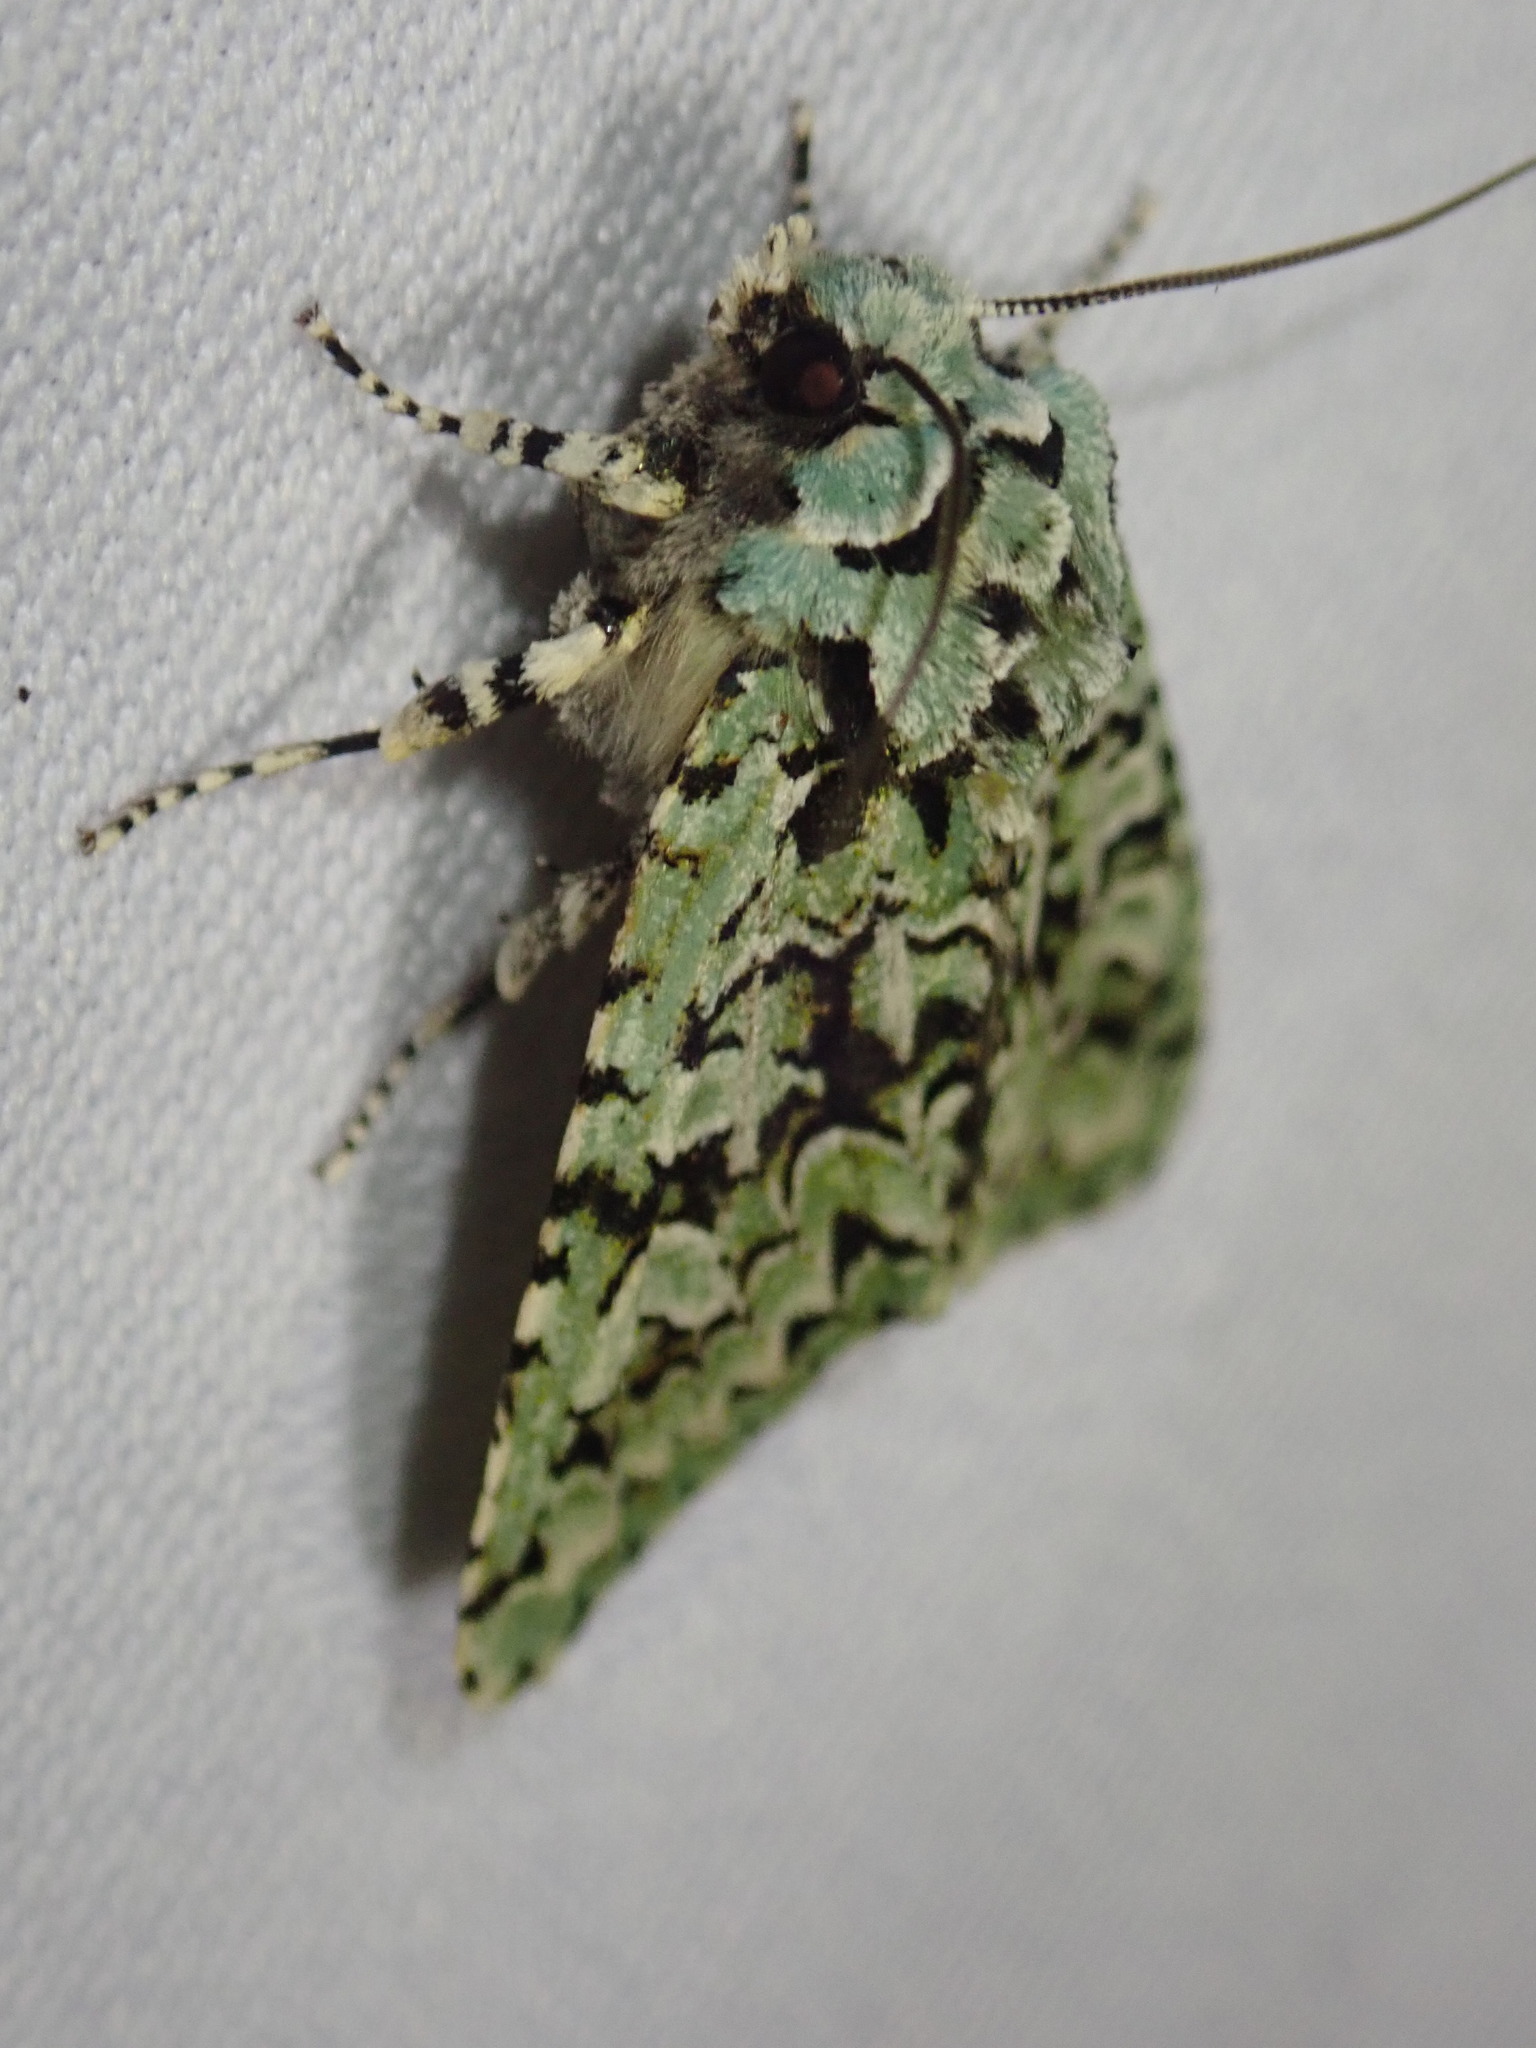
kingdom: Animalia
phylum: Arthropoda
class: Insecta
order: Lepidoptera
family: Noctuidae
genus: Griposia
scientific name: Griposia aprilina
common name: Merveille du jour
